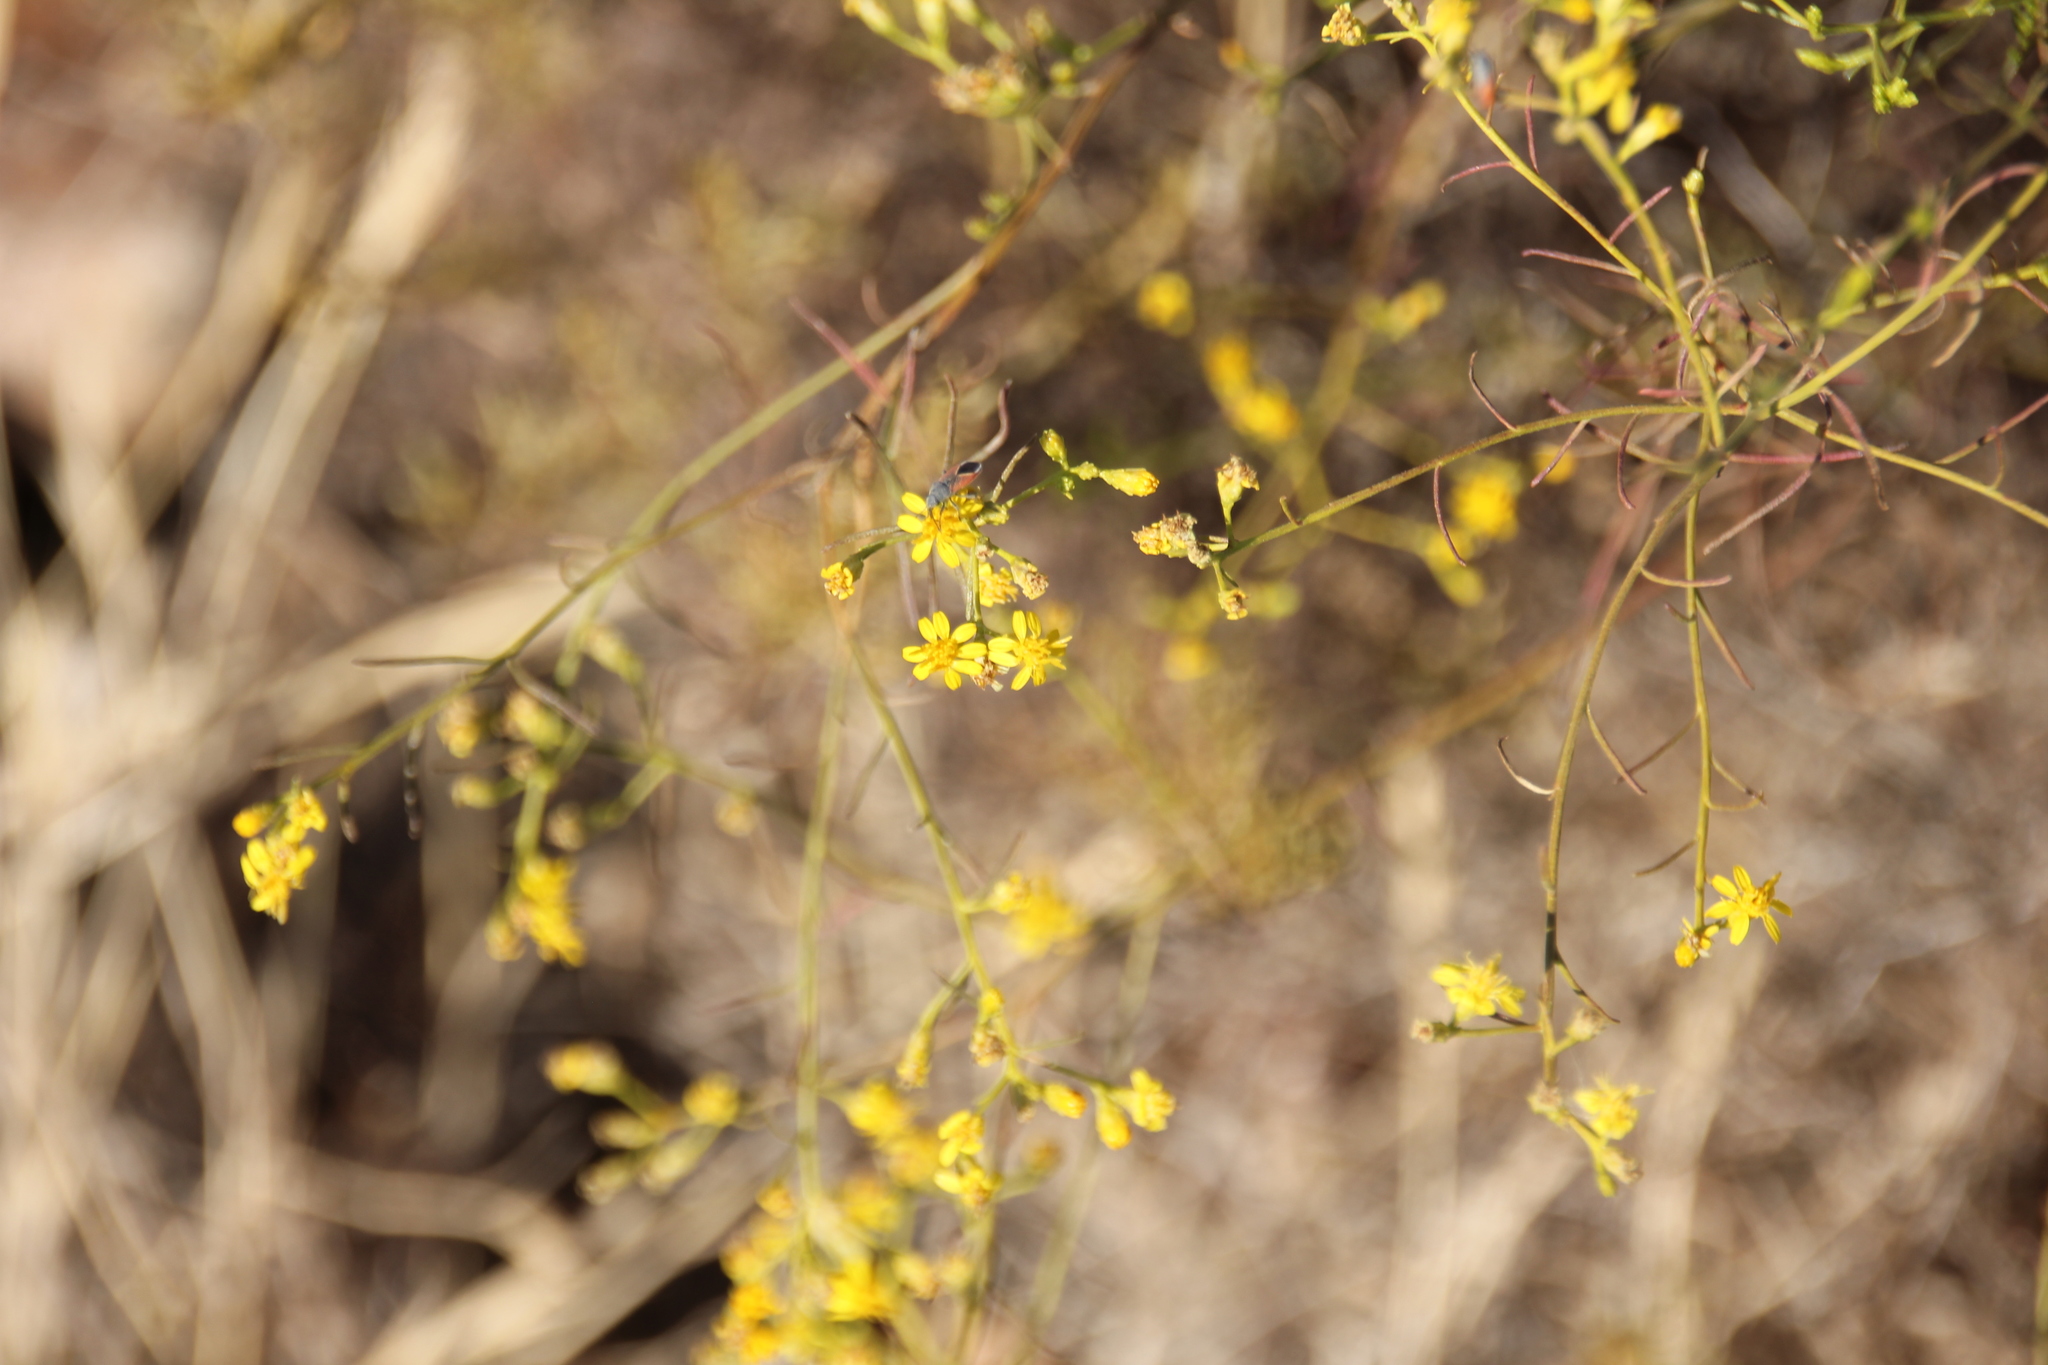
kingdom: Plantae
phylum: Tracheophyta
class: Magnoliopsida
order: Asterales
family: Asteraceae
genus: Gutierrezia
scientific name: Gutierrezia sarothrae
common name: Broom snakeweed
